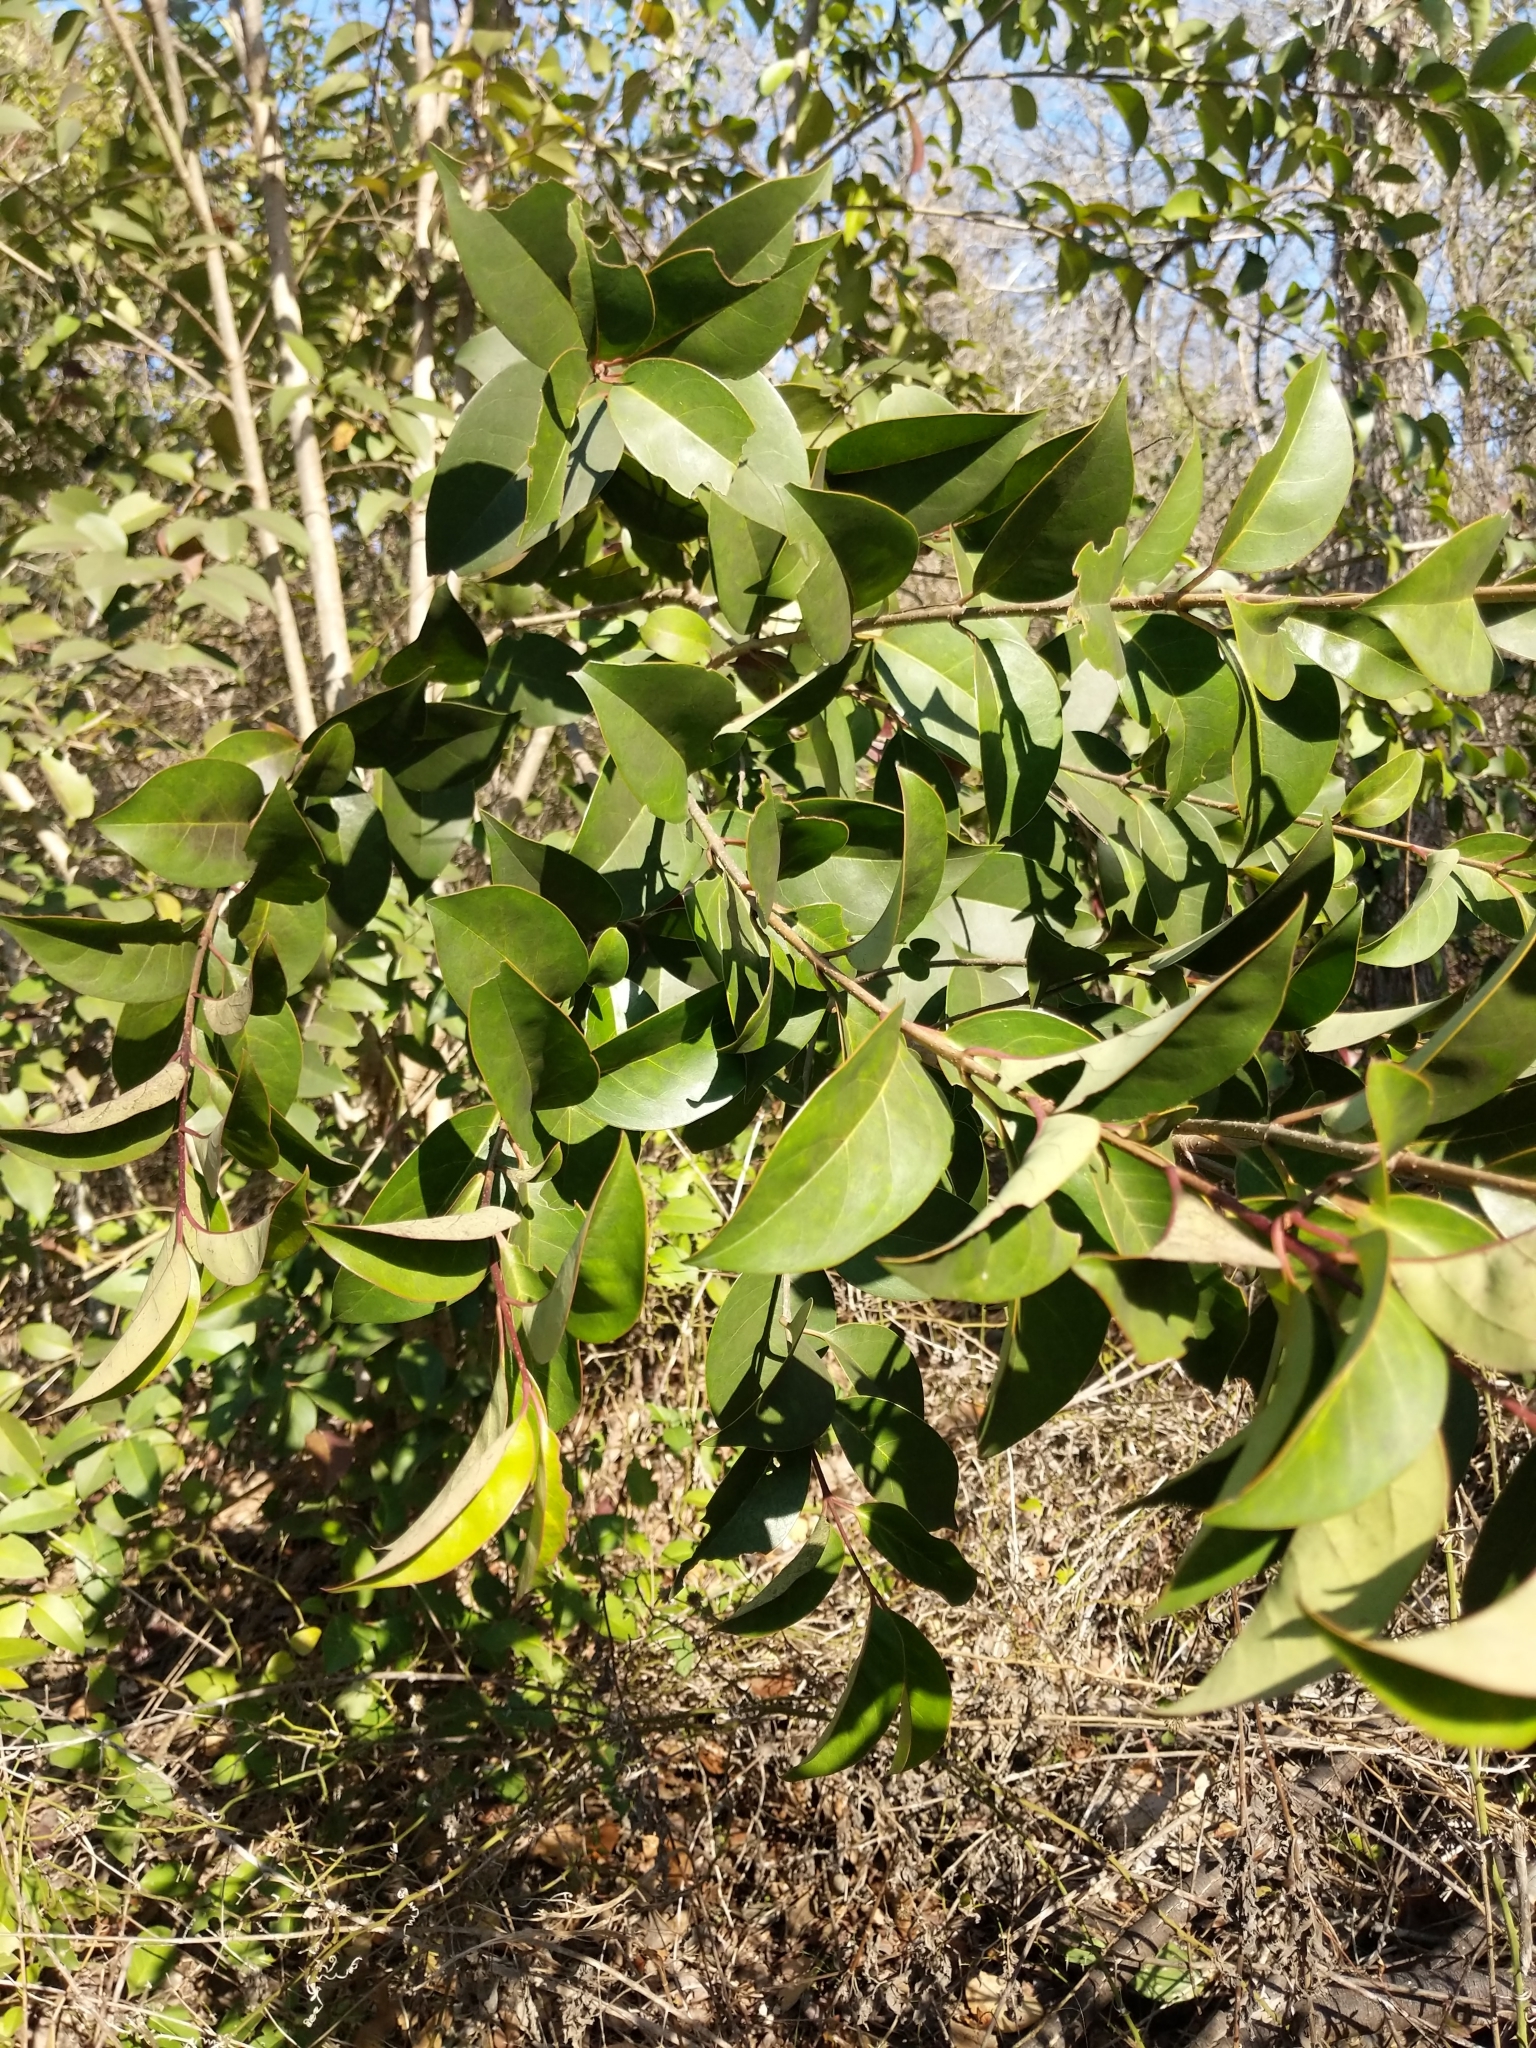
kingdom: Plantae
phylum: Tracheophyta
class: Magnoliopsida
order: Lamiales
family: Oleaceae
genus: Ligustrum
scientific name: Ligustrum lucidum
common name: Glossy privet
